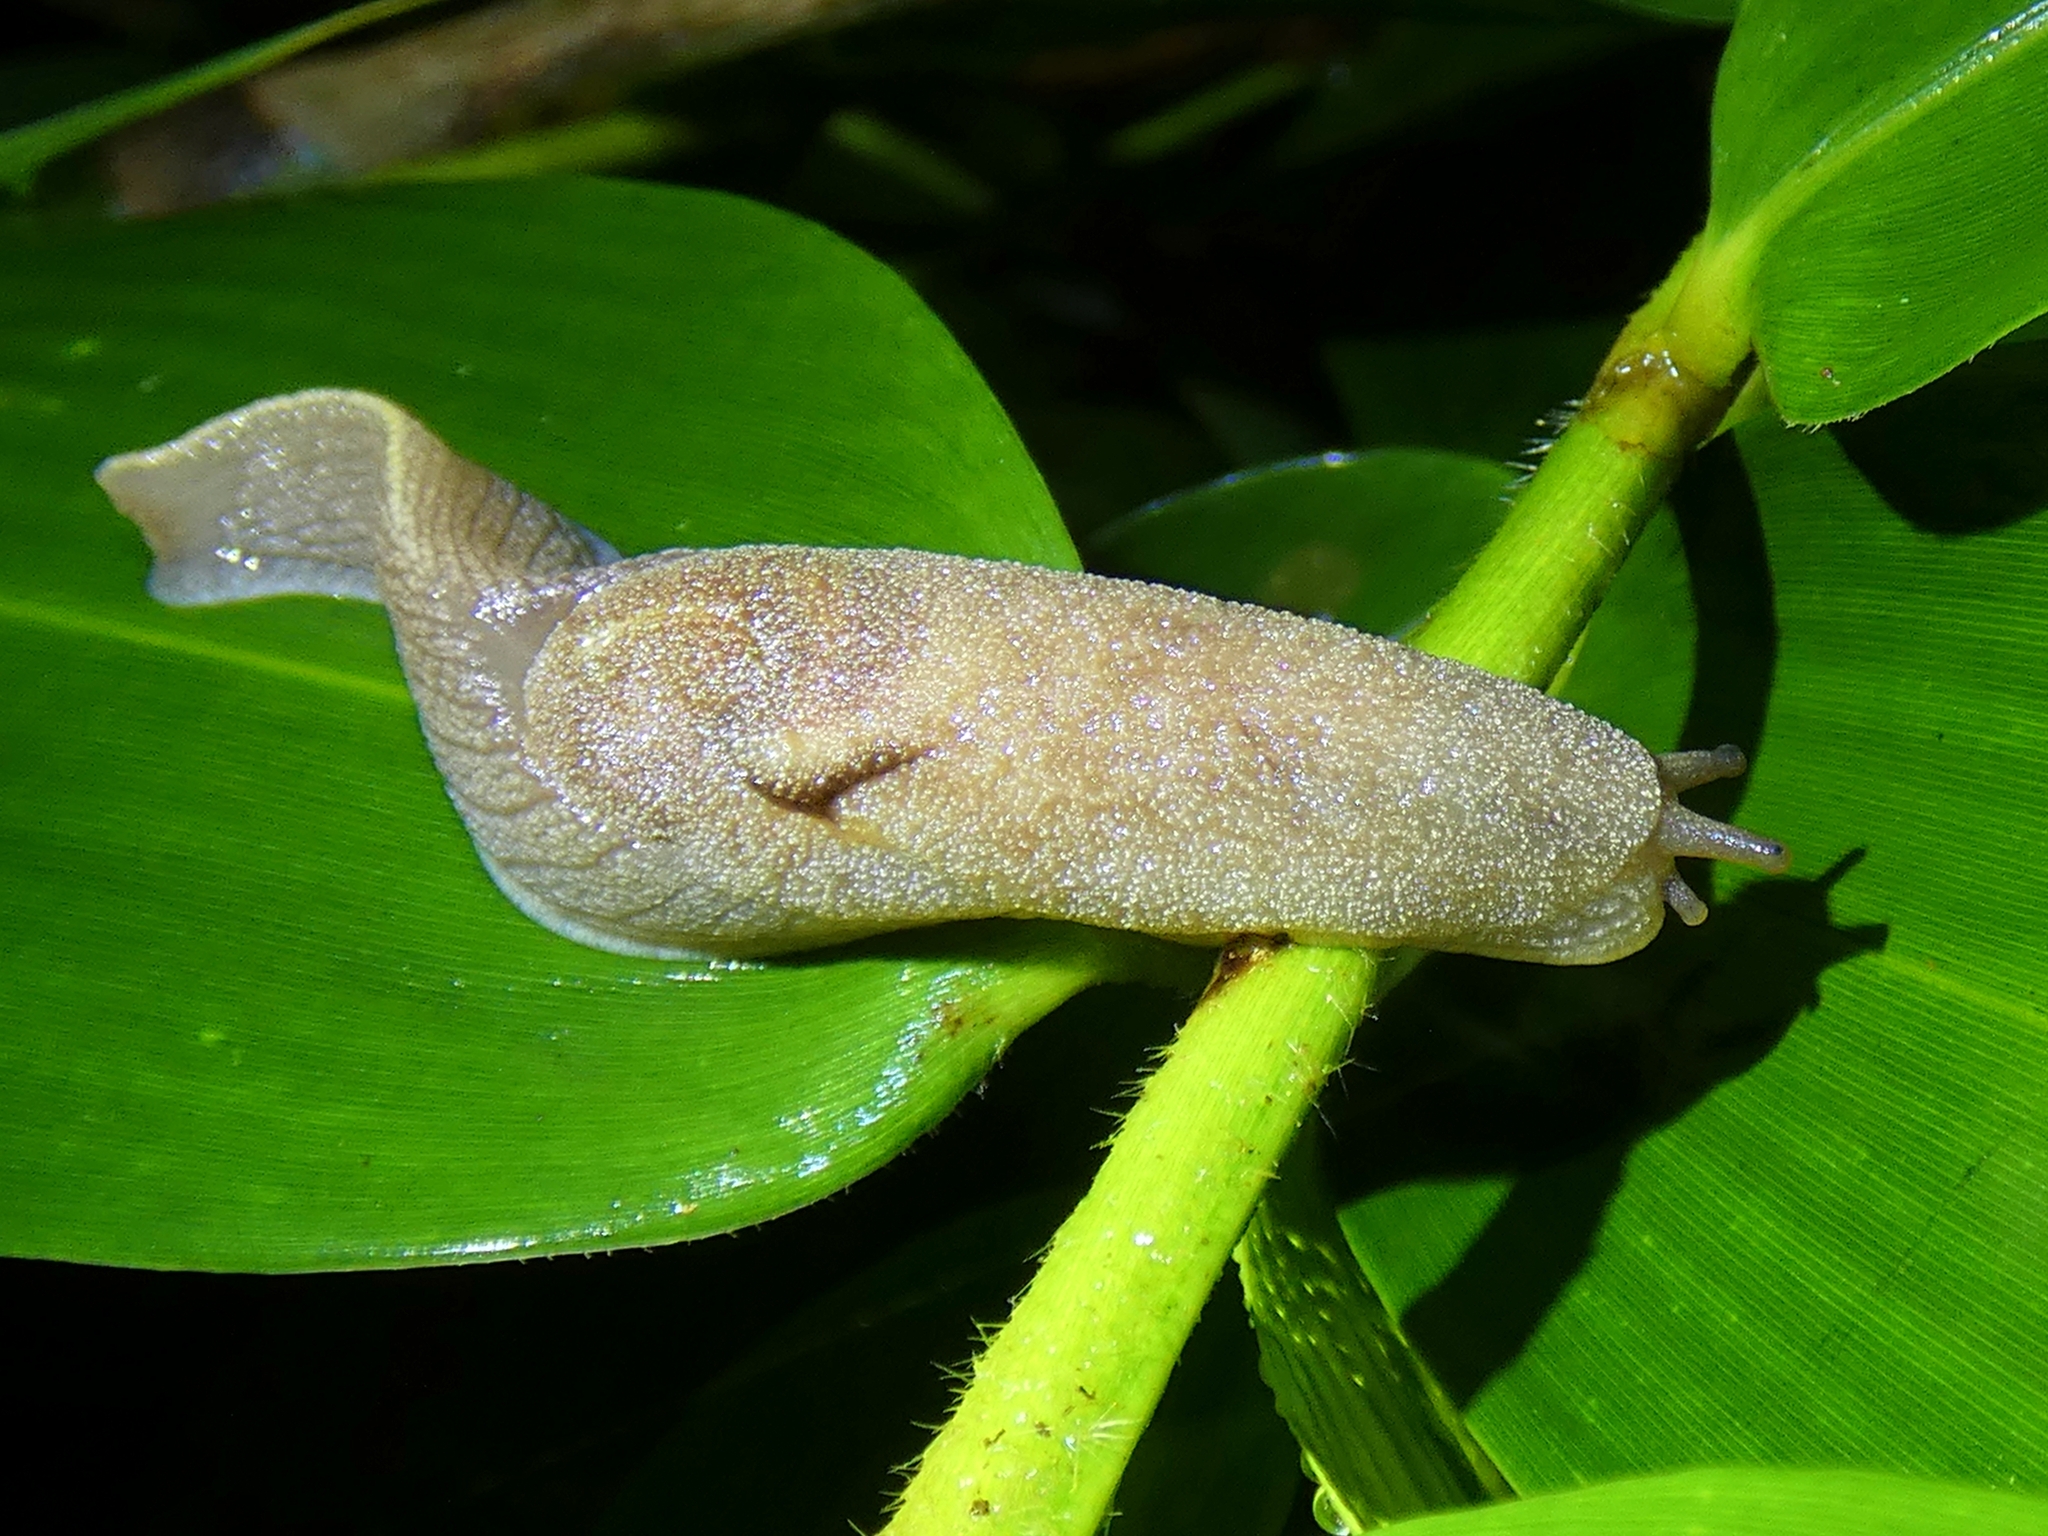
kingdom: Animalia
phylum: Mollusca
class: Gastropoda
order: Stylommatophora
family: Helicarionidae
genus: Parmacochlea
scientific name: Parmacochlea furca
